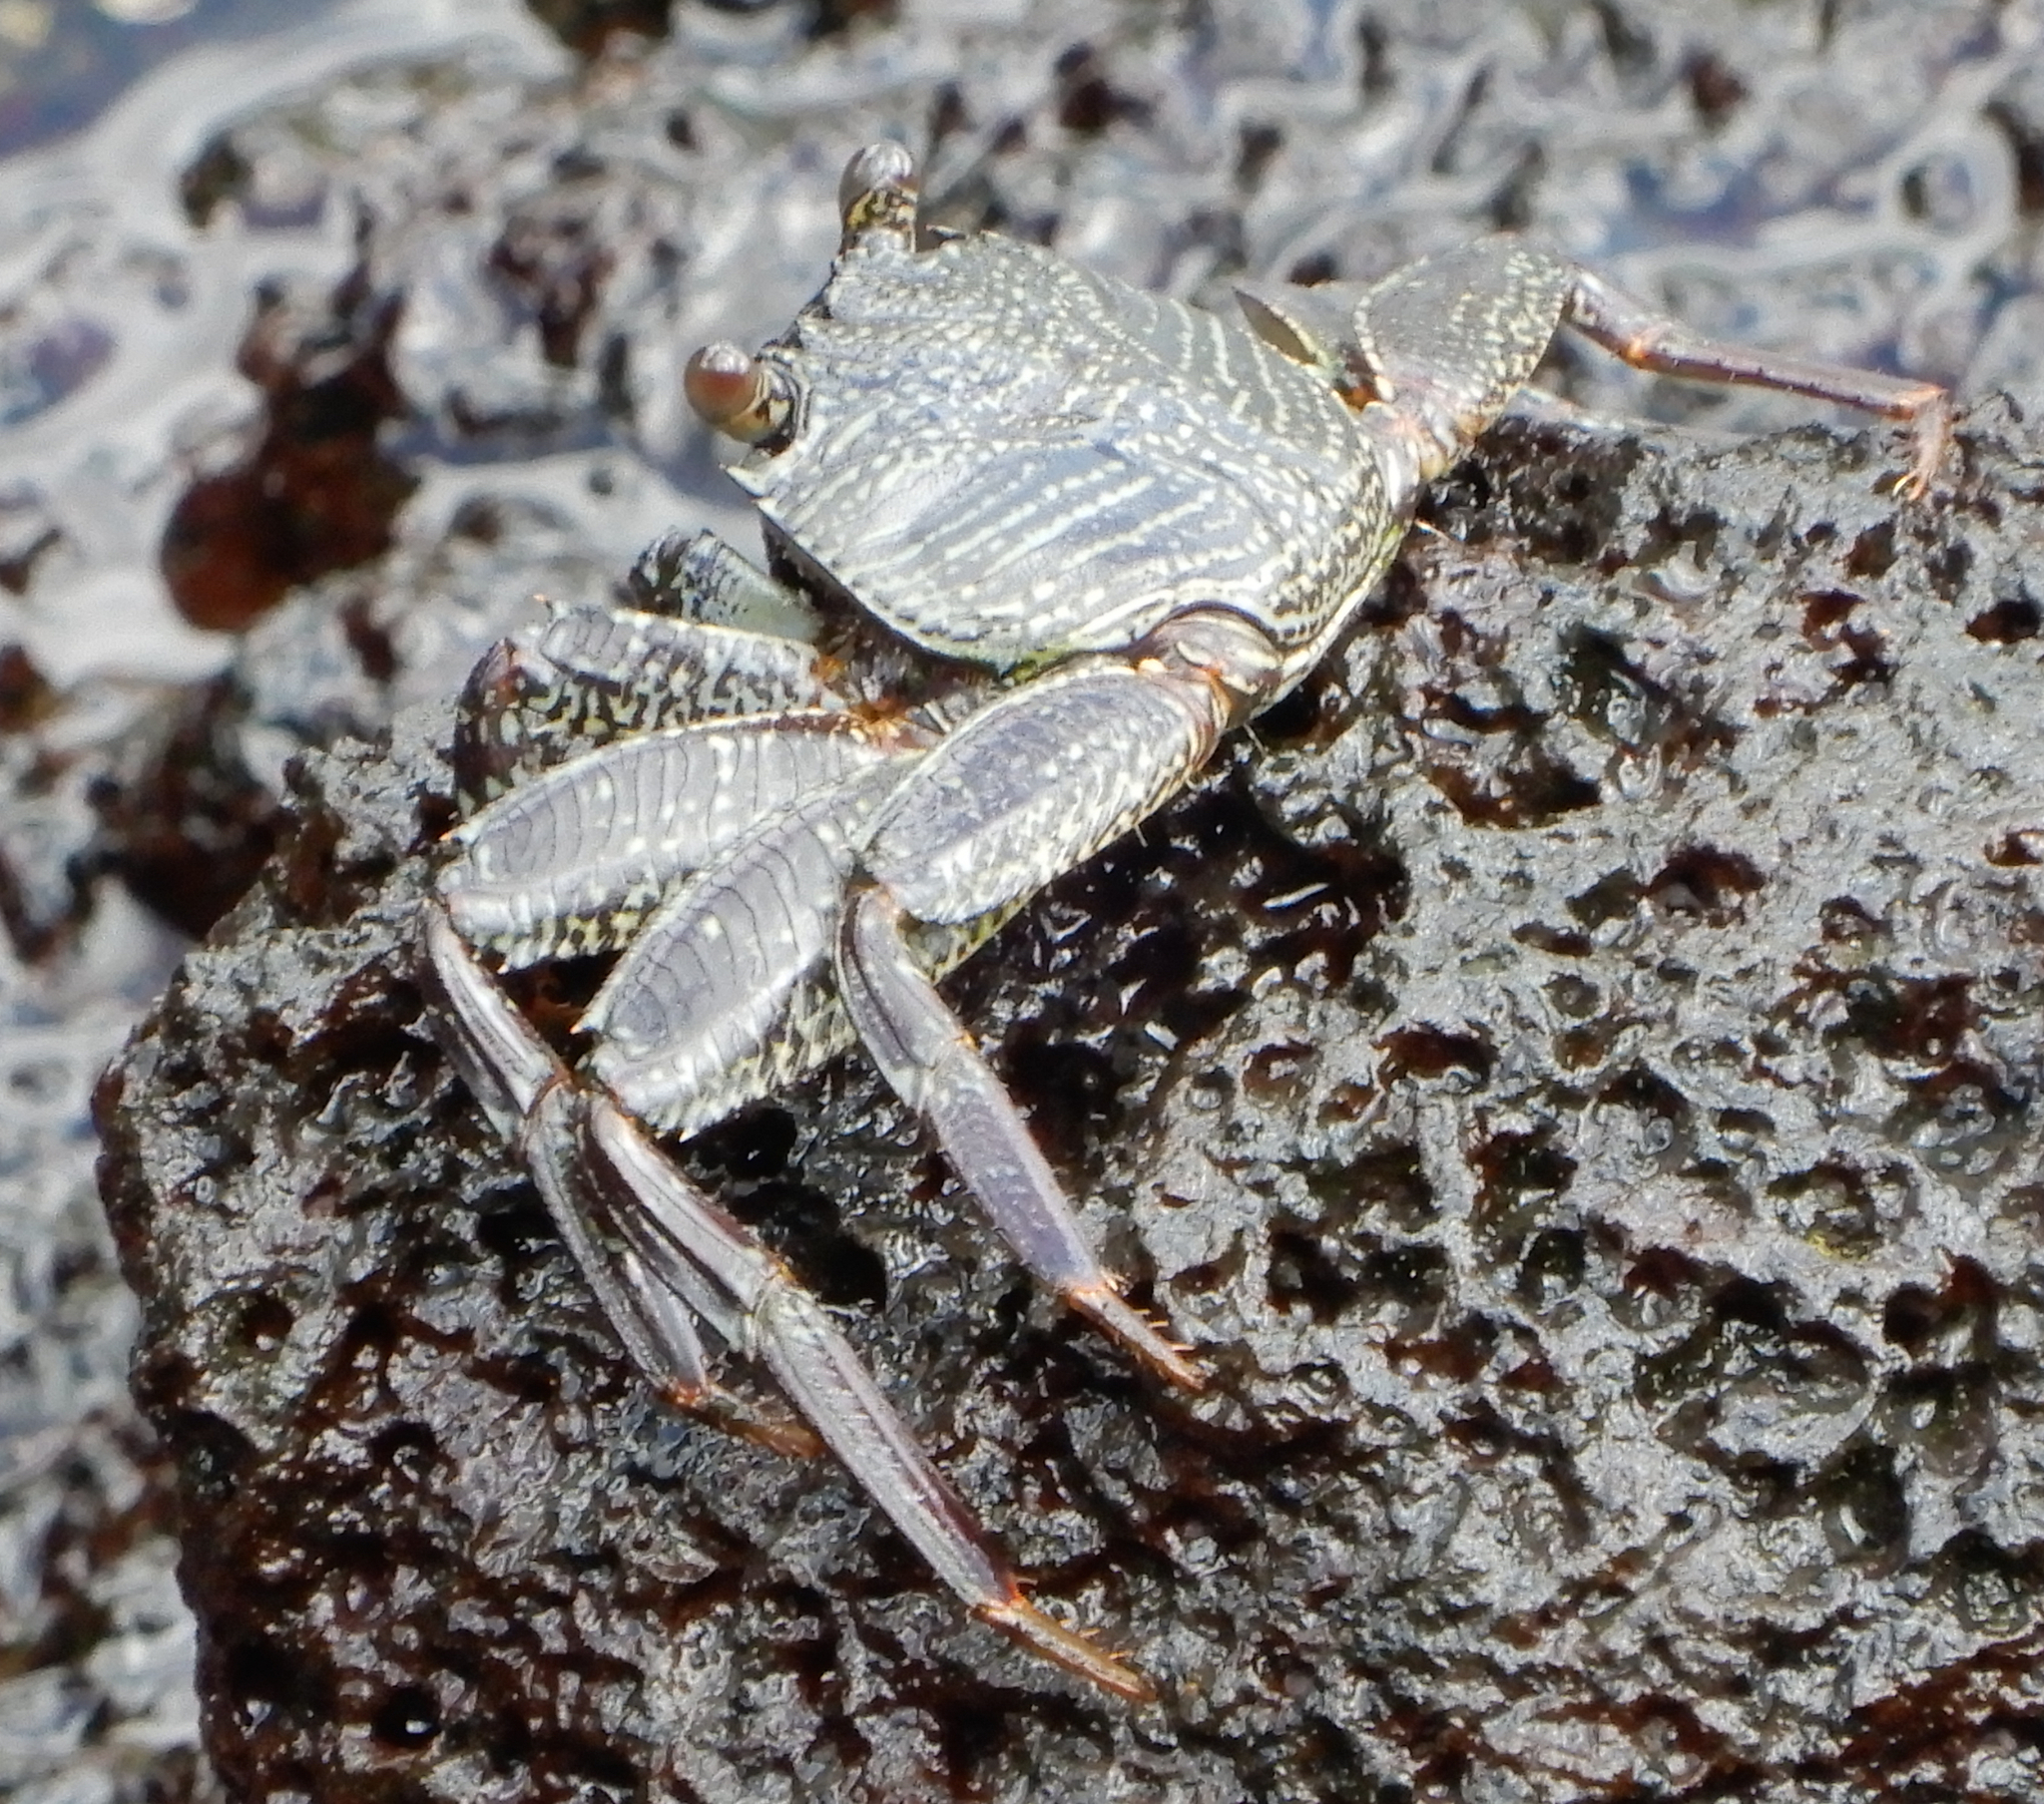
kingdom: Animalia
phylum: Arthropoda
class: Malacostraca
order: Decapoda
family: Grapsidae
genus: Grapsus
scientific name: Grapsus tenuicrustatus
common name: Natal lightfoot crab
